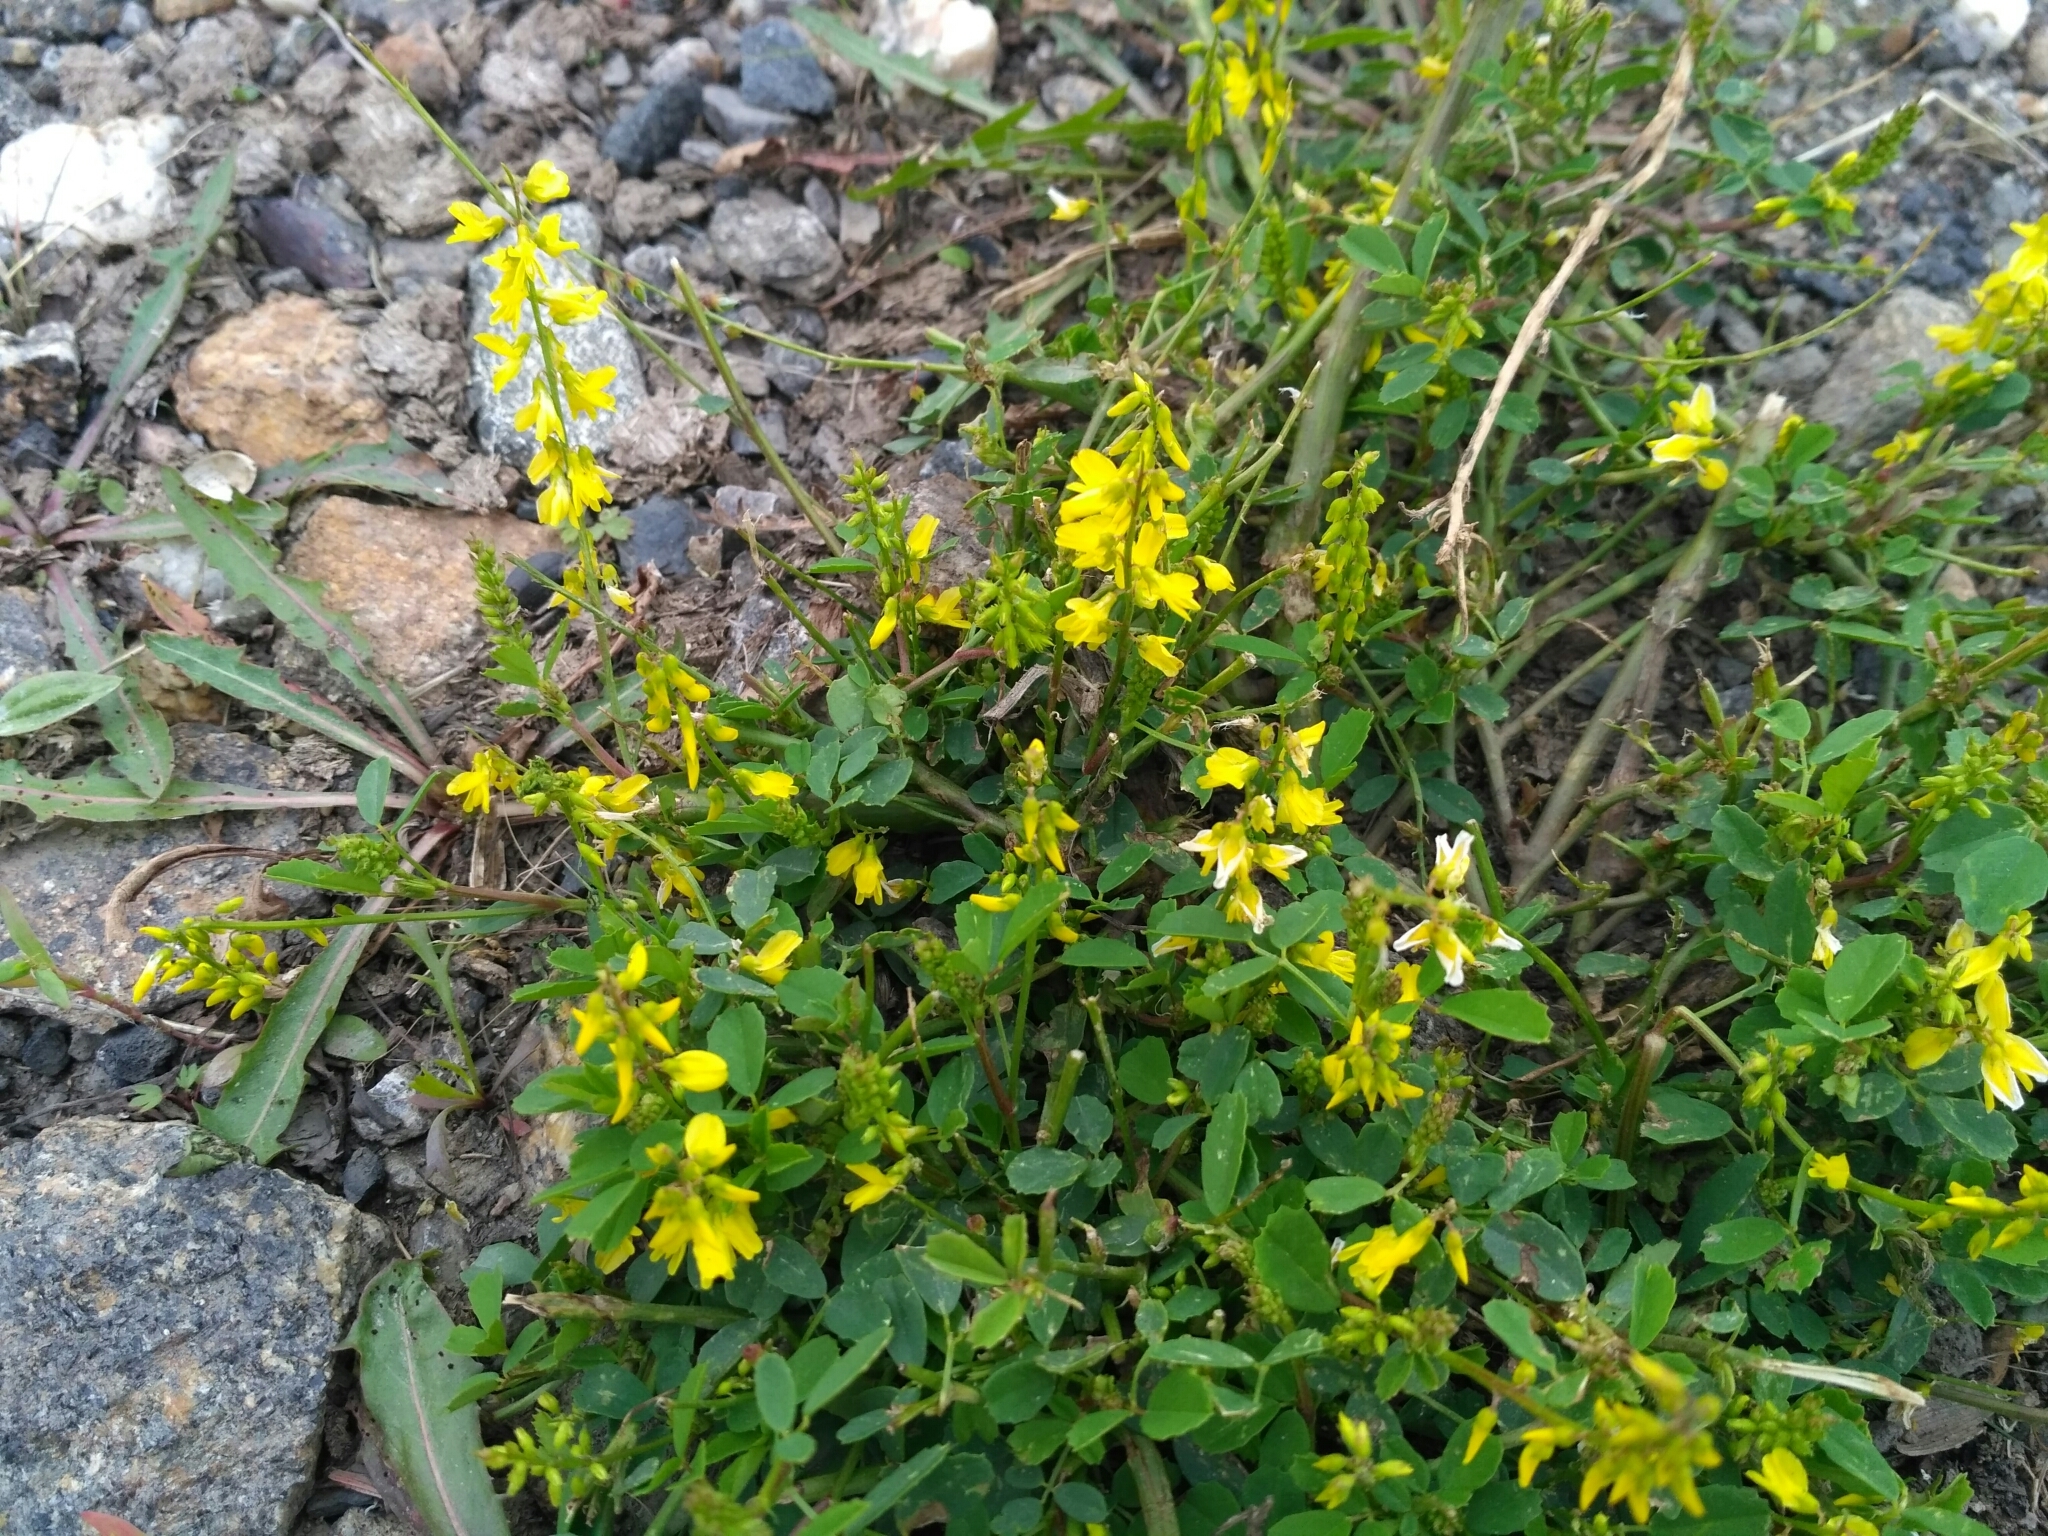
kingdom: Plantae
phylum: Tracheophyta
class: Magnoliopsida
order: Fabales
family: Fabaceae
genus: Melilotus
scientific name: Melilotus suaveolens
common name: Daghestan sweet-clover
